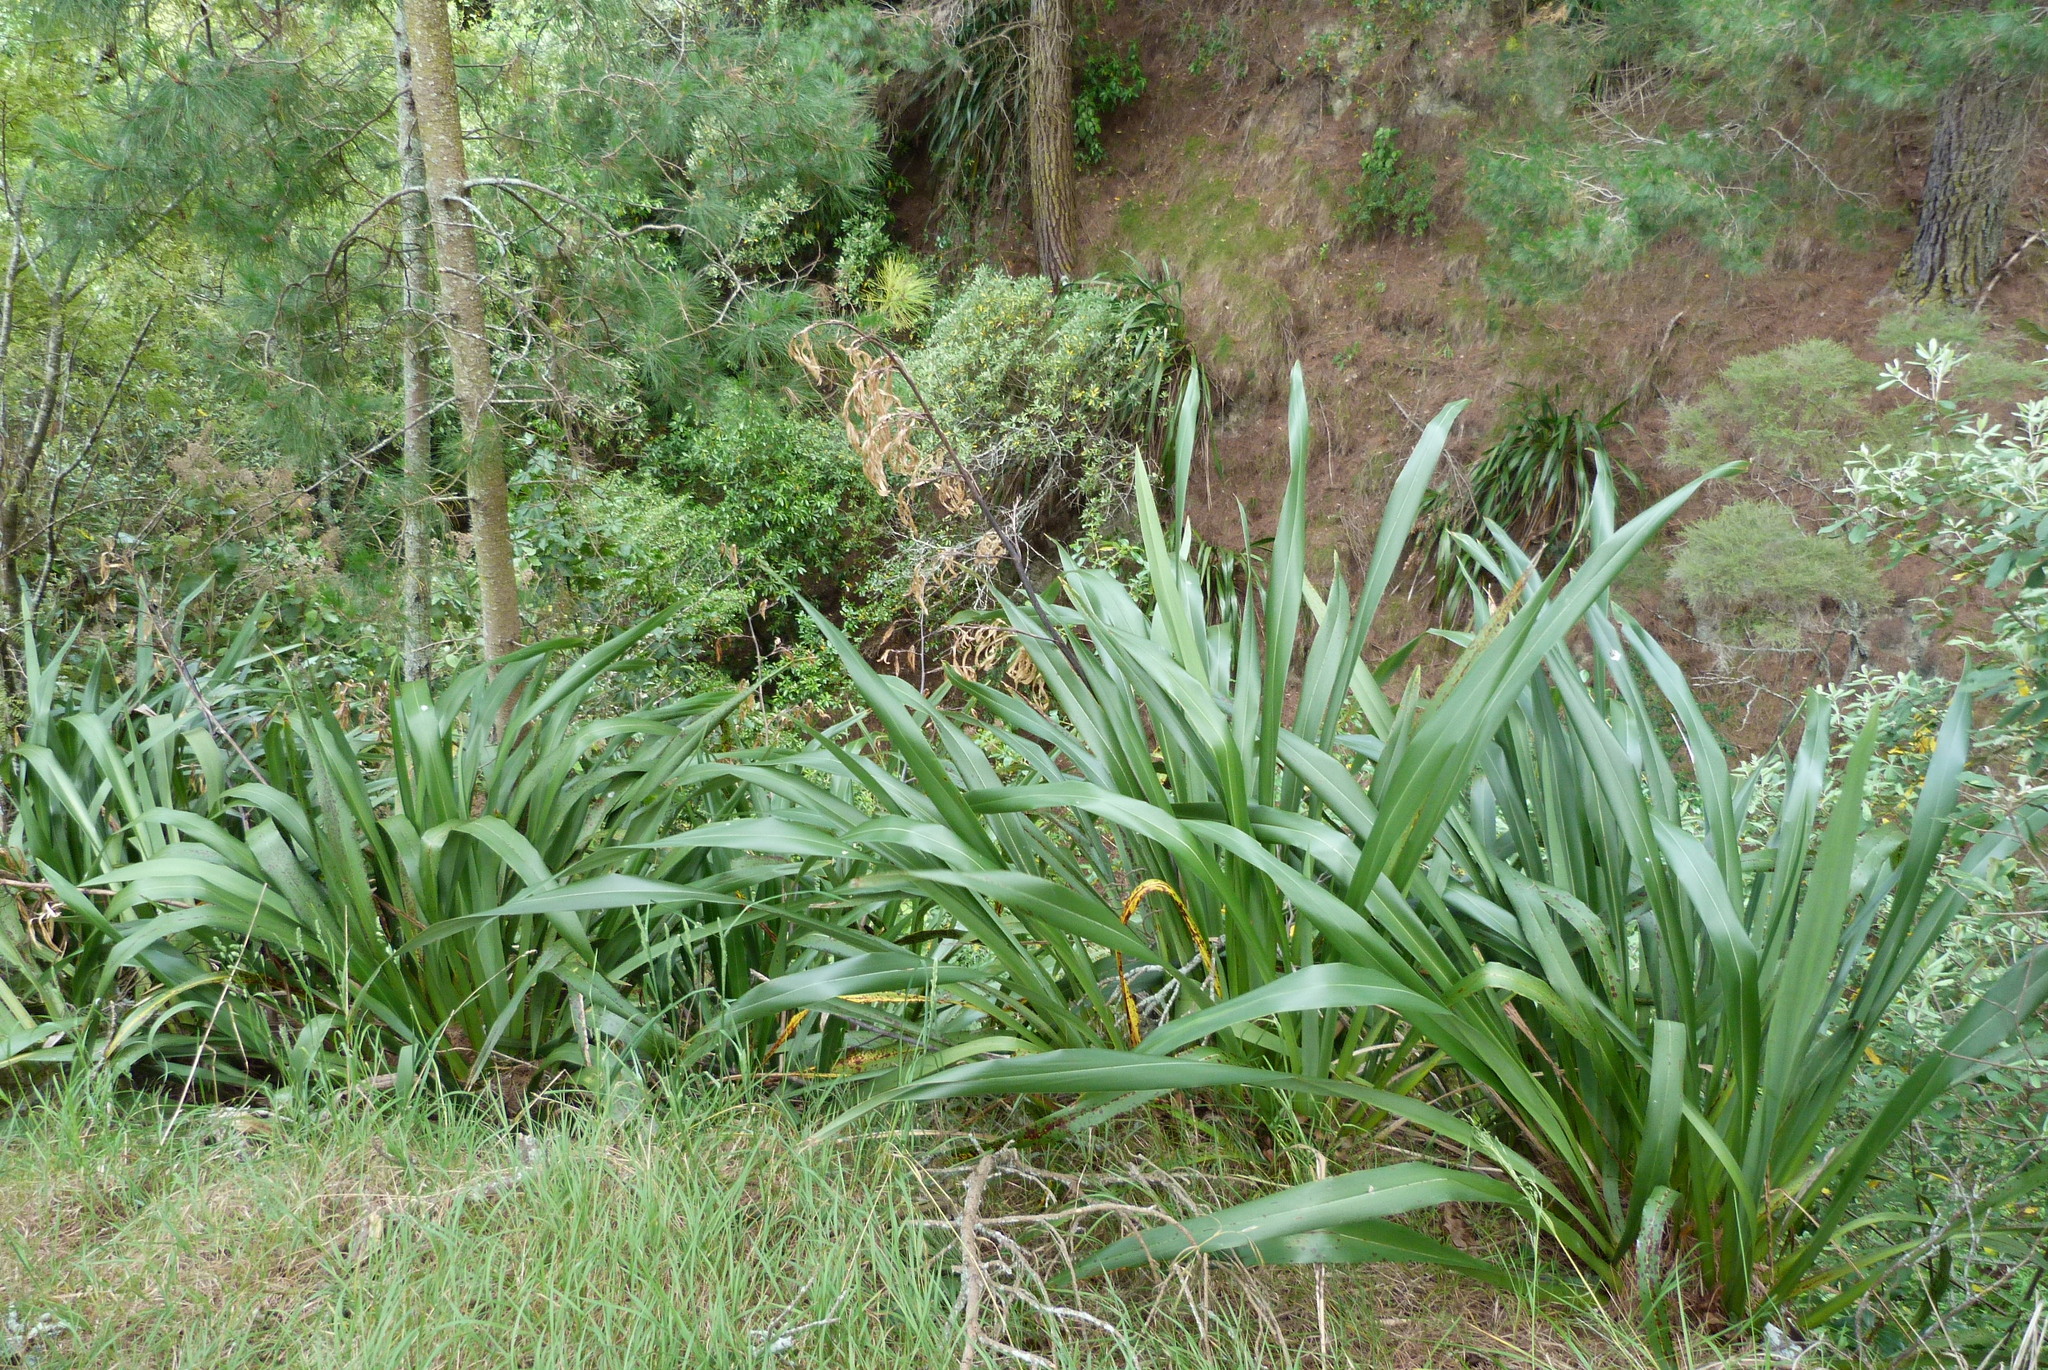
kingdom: Plantae
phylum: Tracheophyta
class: Liliopsida
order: Asparagales
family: Asphodelaceae
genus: Phormium
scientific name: Phormium colensoi
